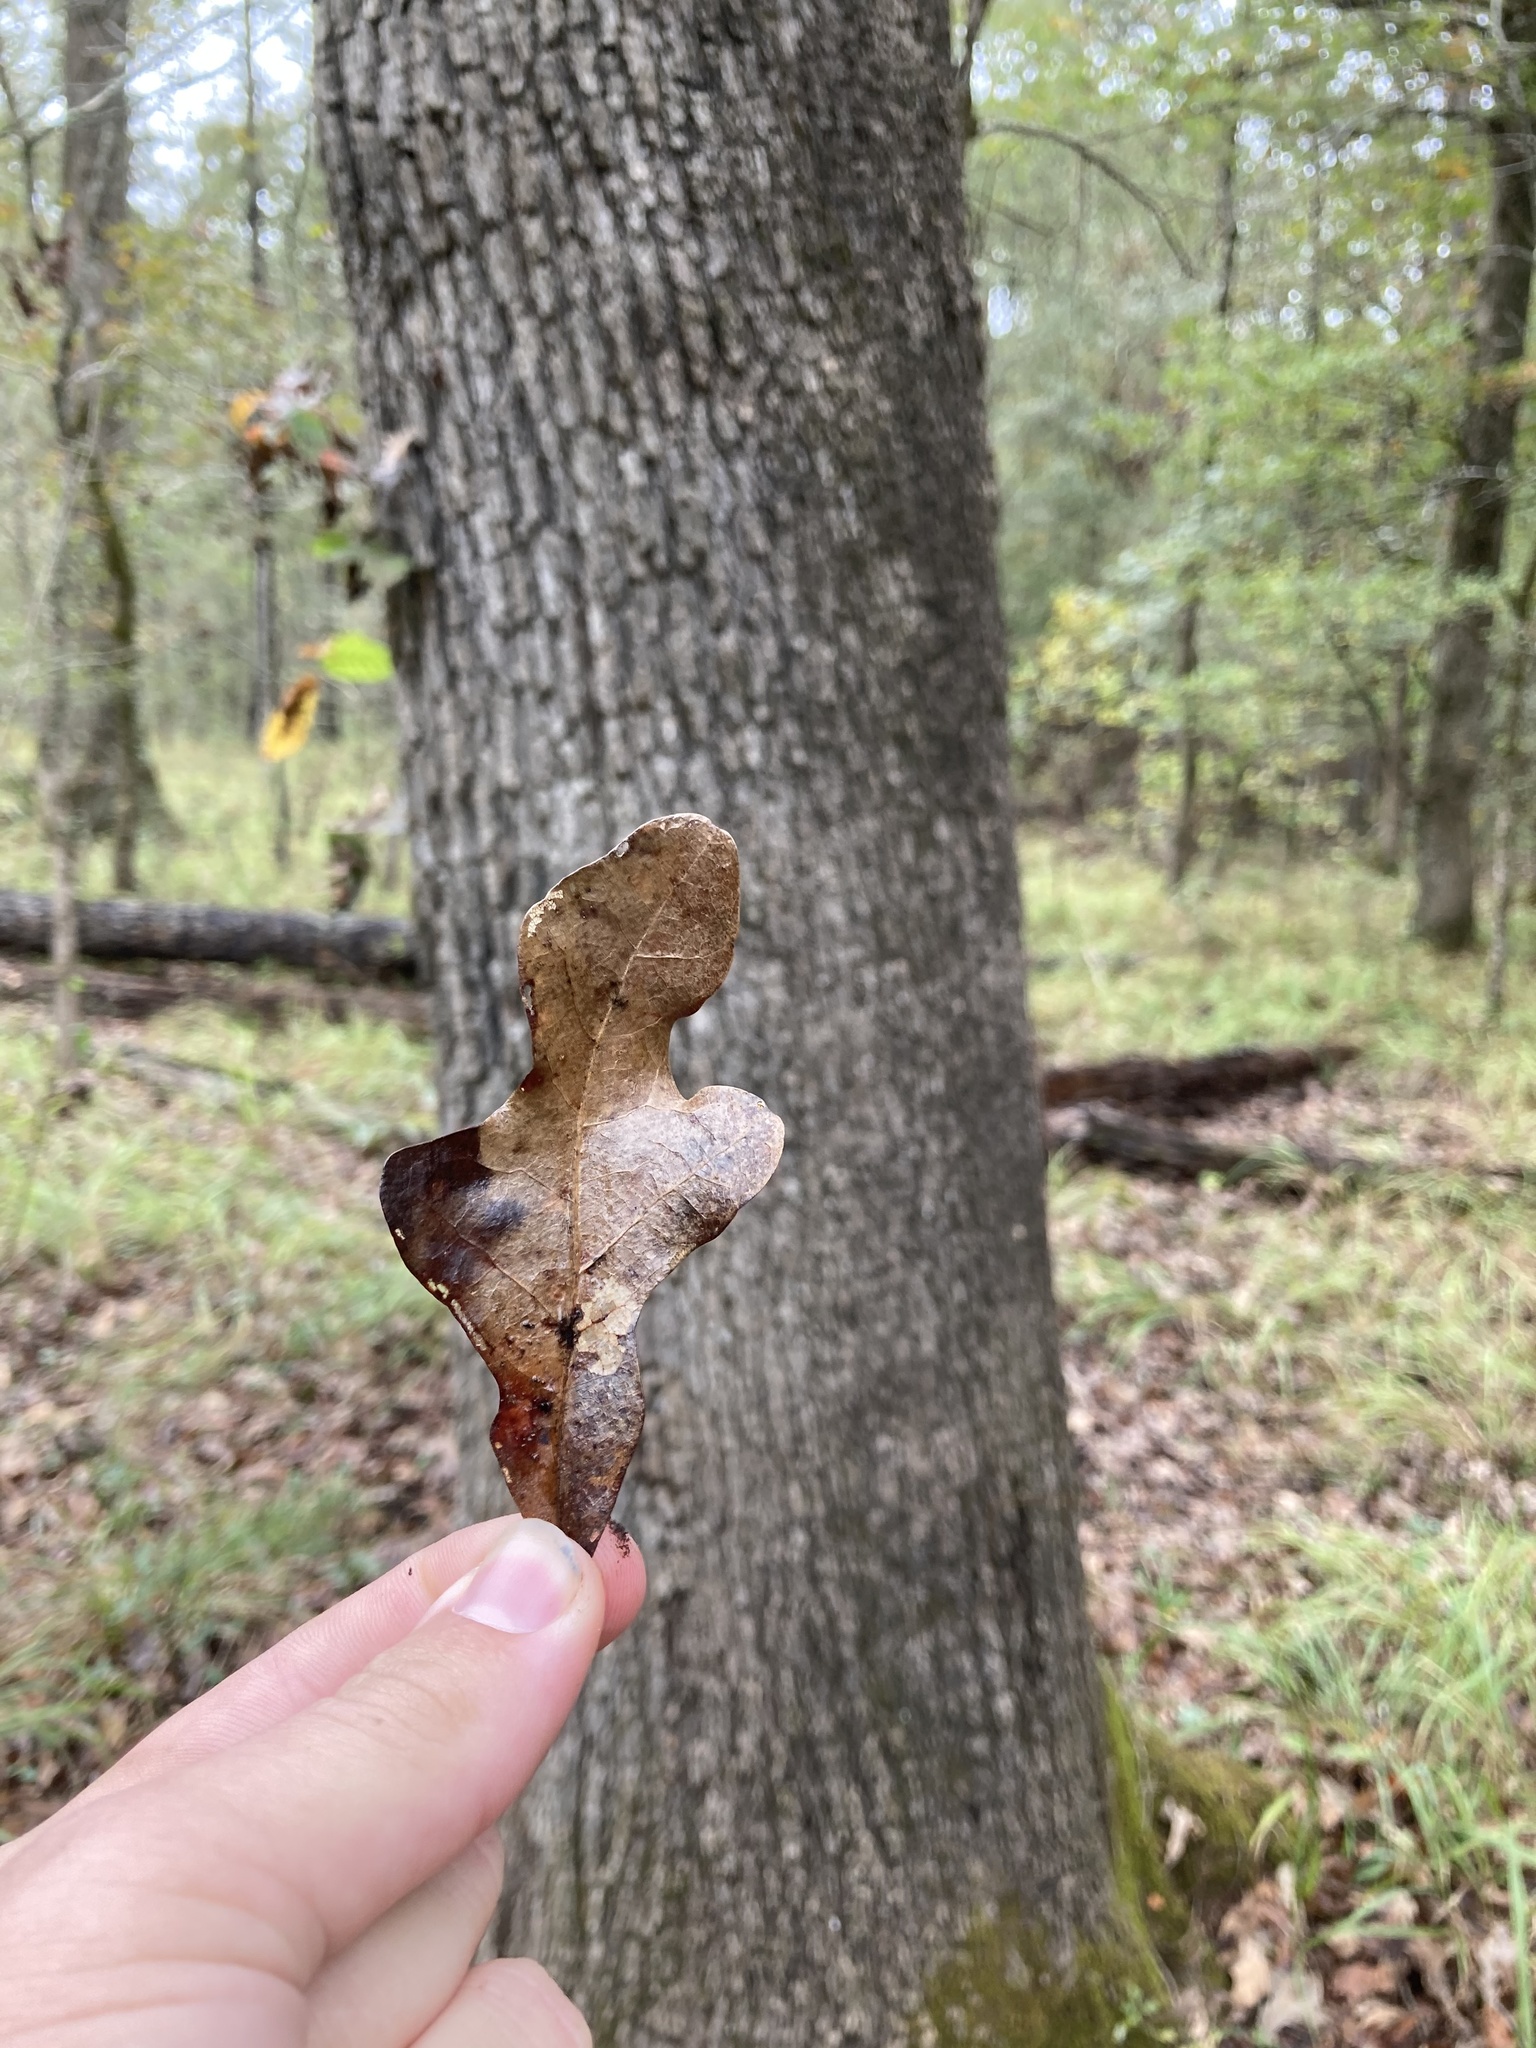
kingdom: Plantae
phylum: Tracheophyta
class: Magnoliopsida
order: Fagales
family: Fagaceae
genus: Quercus
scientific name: Quercus similis
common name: Delta post oak
